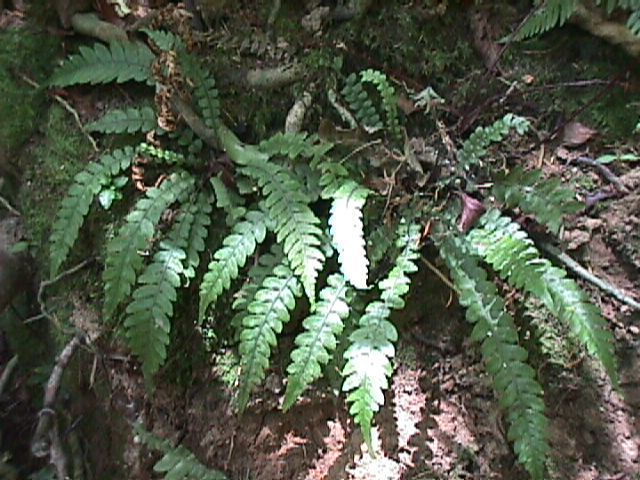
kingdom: Plantae
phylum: Tracheophyta
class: Polypodiopsida
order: Polypodiales
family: Blechnaceae
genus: Austroblechnum
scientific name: Austroblechnum lanceolatum
